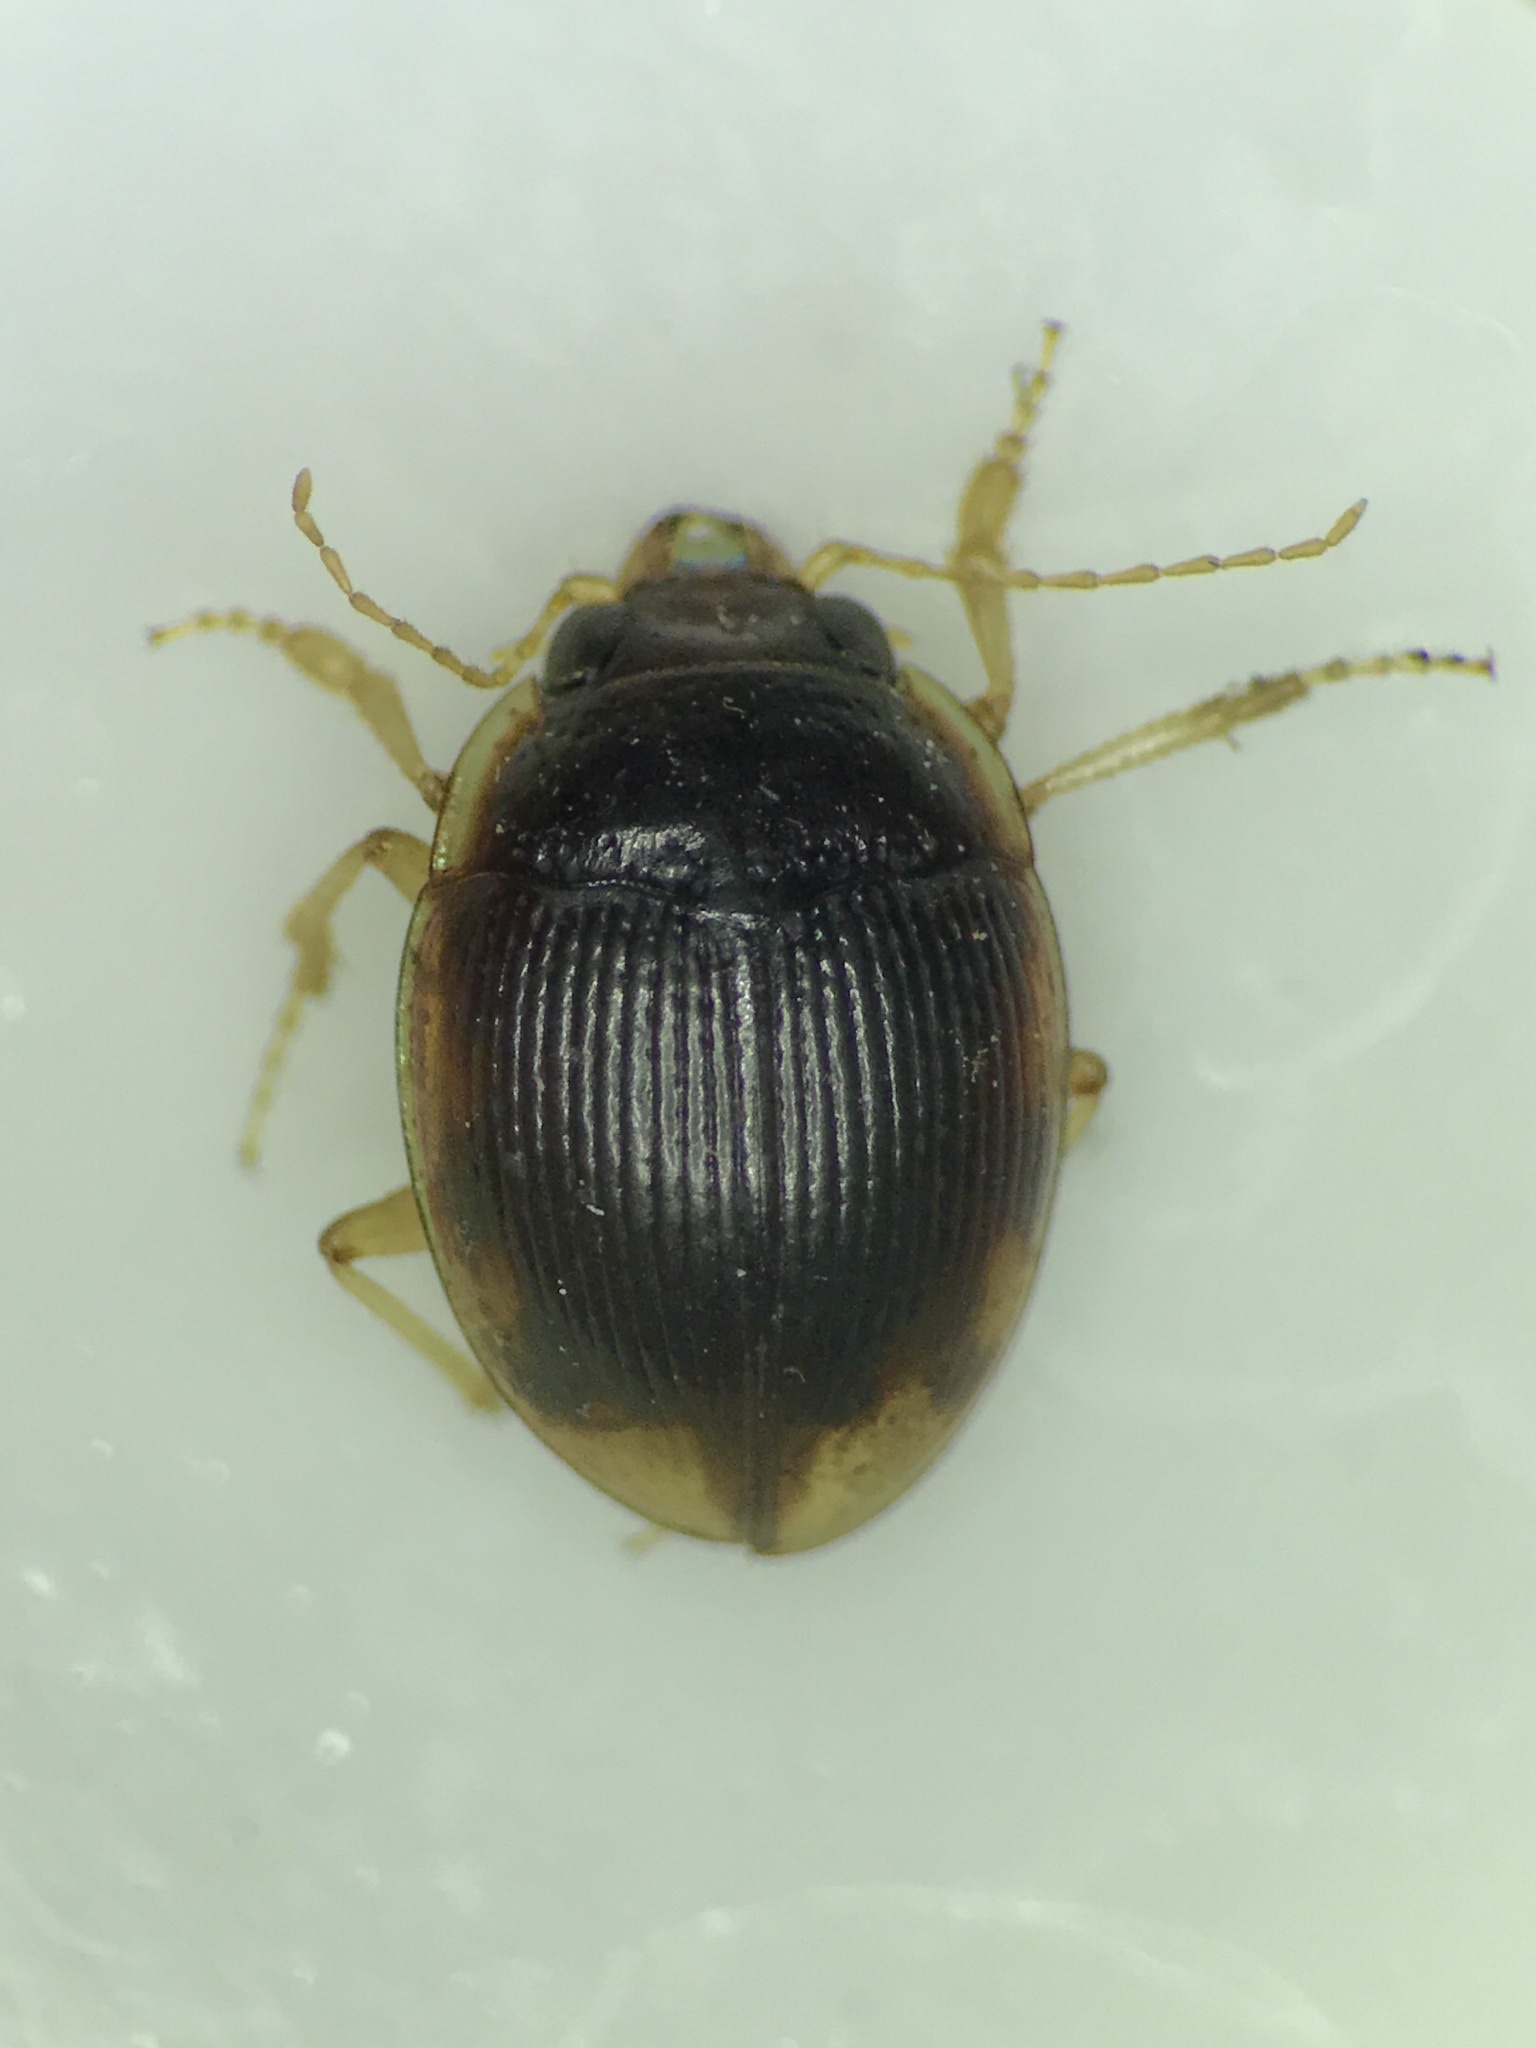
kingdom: Animalia
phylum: Arthropoda
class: Insecta
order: Coleoptera
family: Carabidae
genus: Omophron
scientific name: Omophron labiatum
